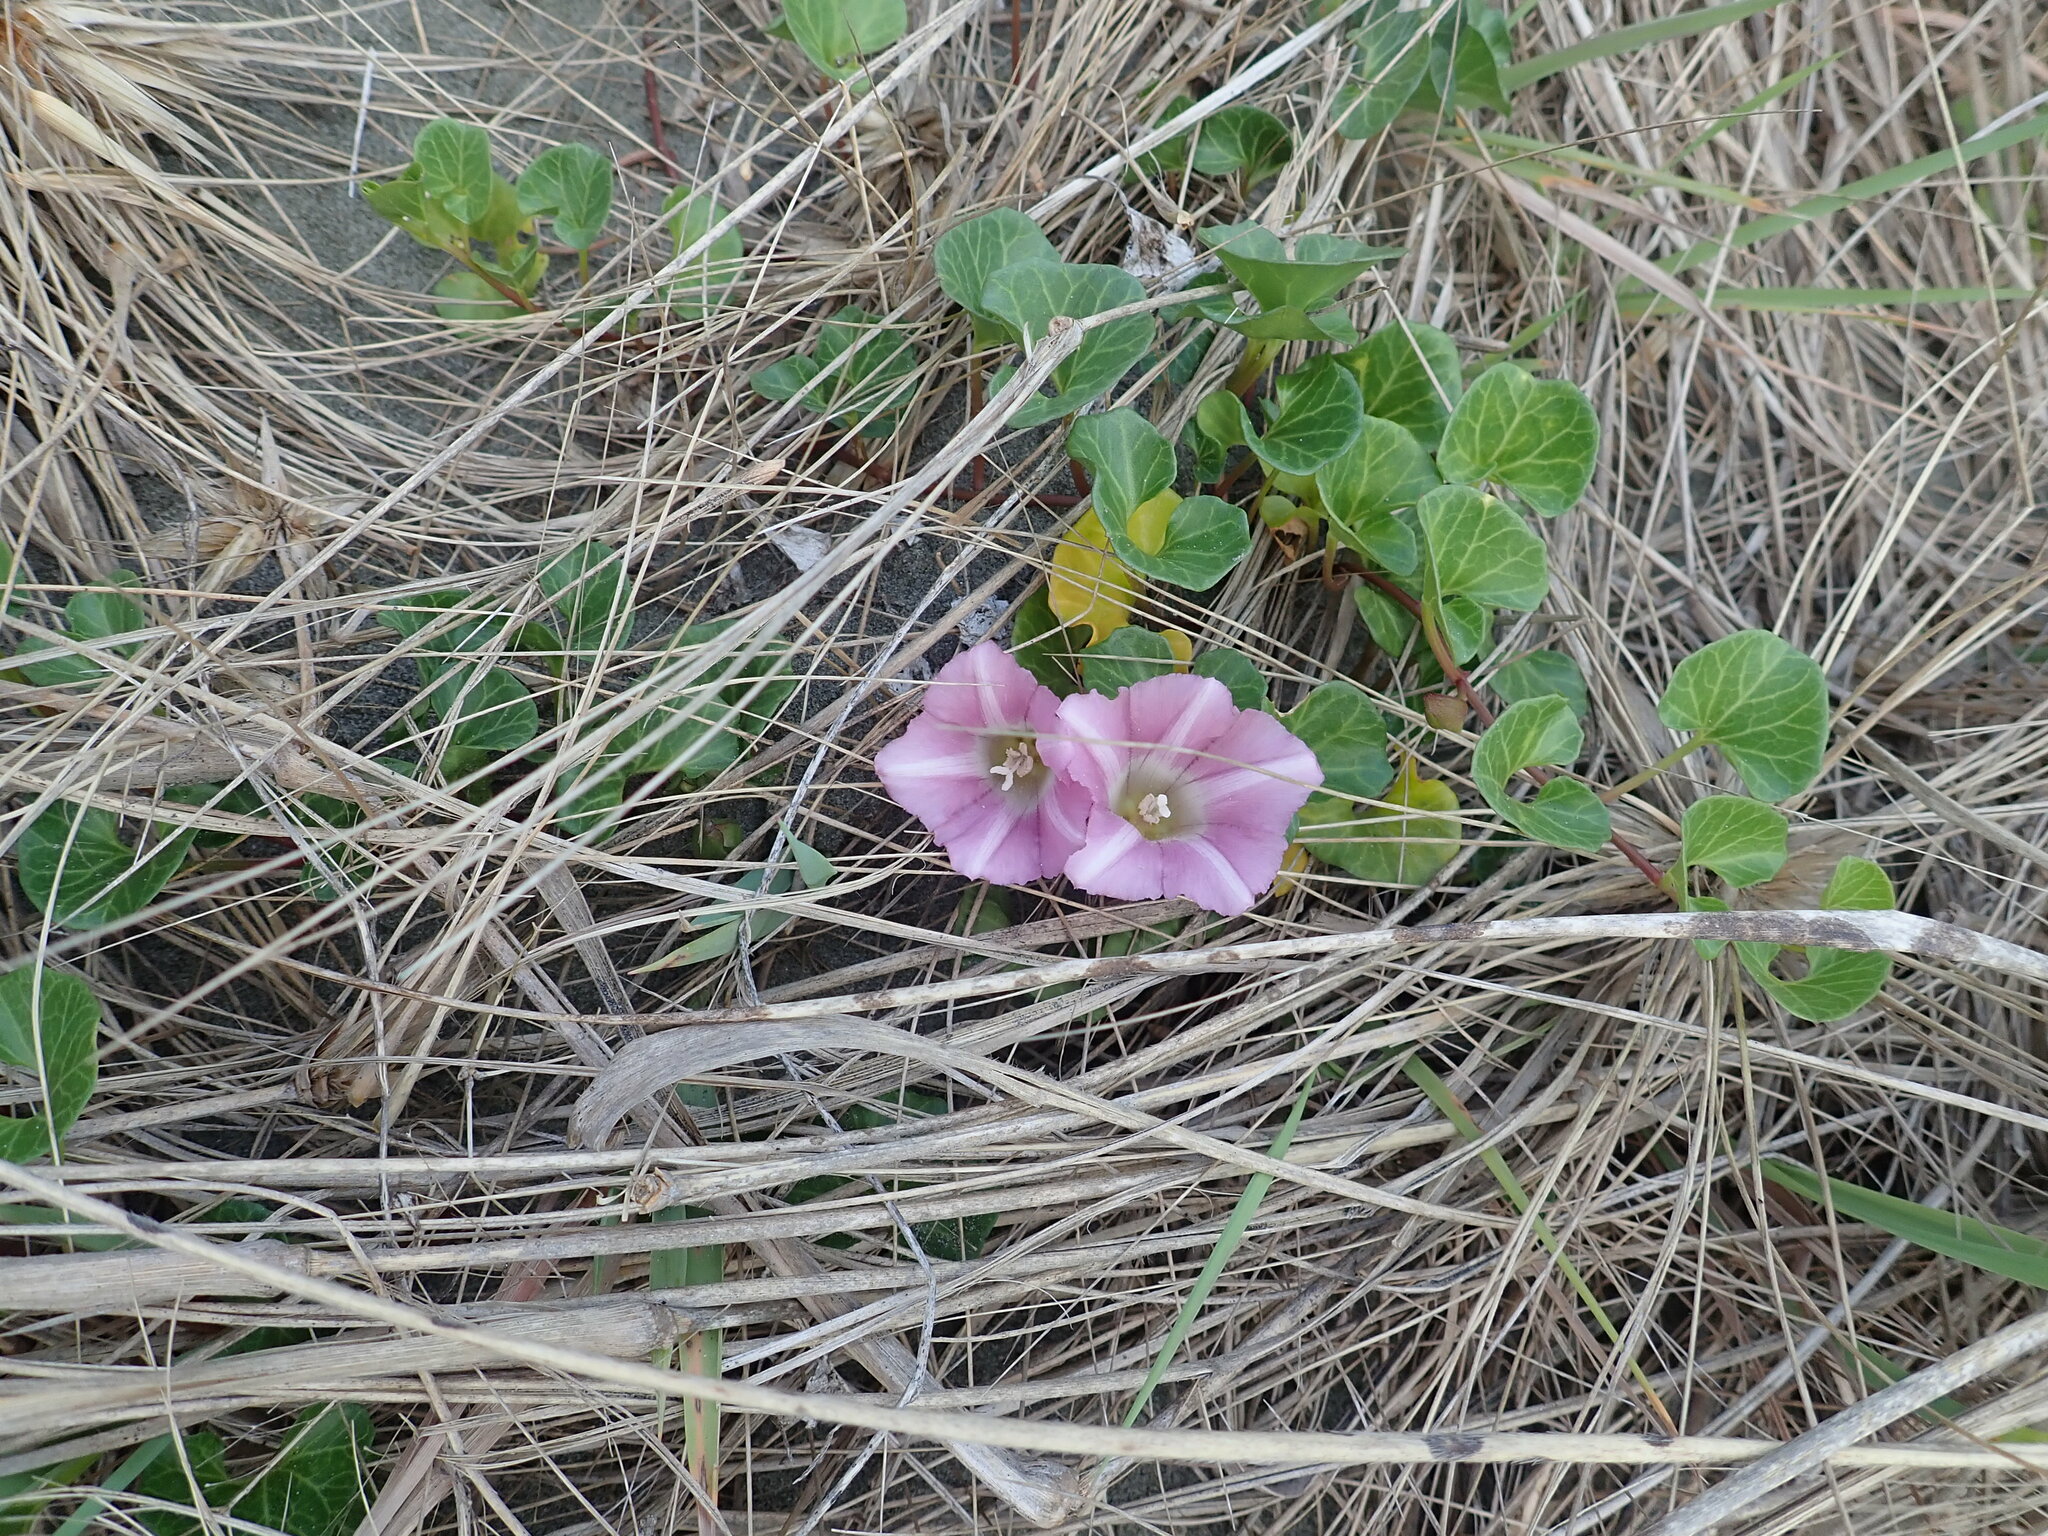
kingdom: Plantae
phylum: Tracheophyta
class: Magnoliopsida
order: Solanales
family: Convolvulaceae
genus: Calystegia
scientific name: Calystegia soldanella
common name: Sea bindweed
